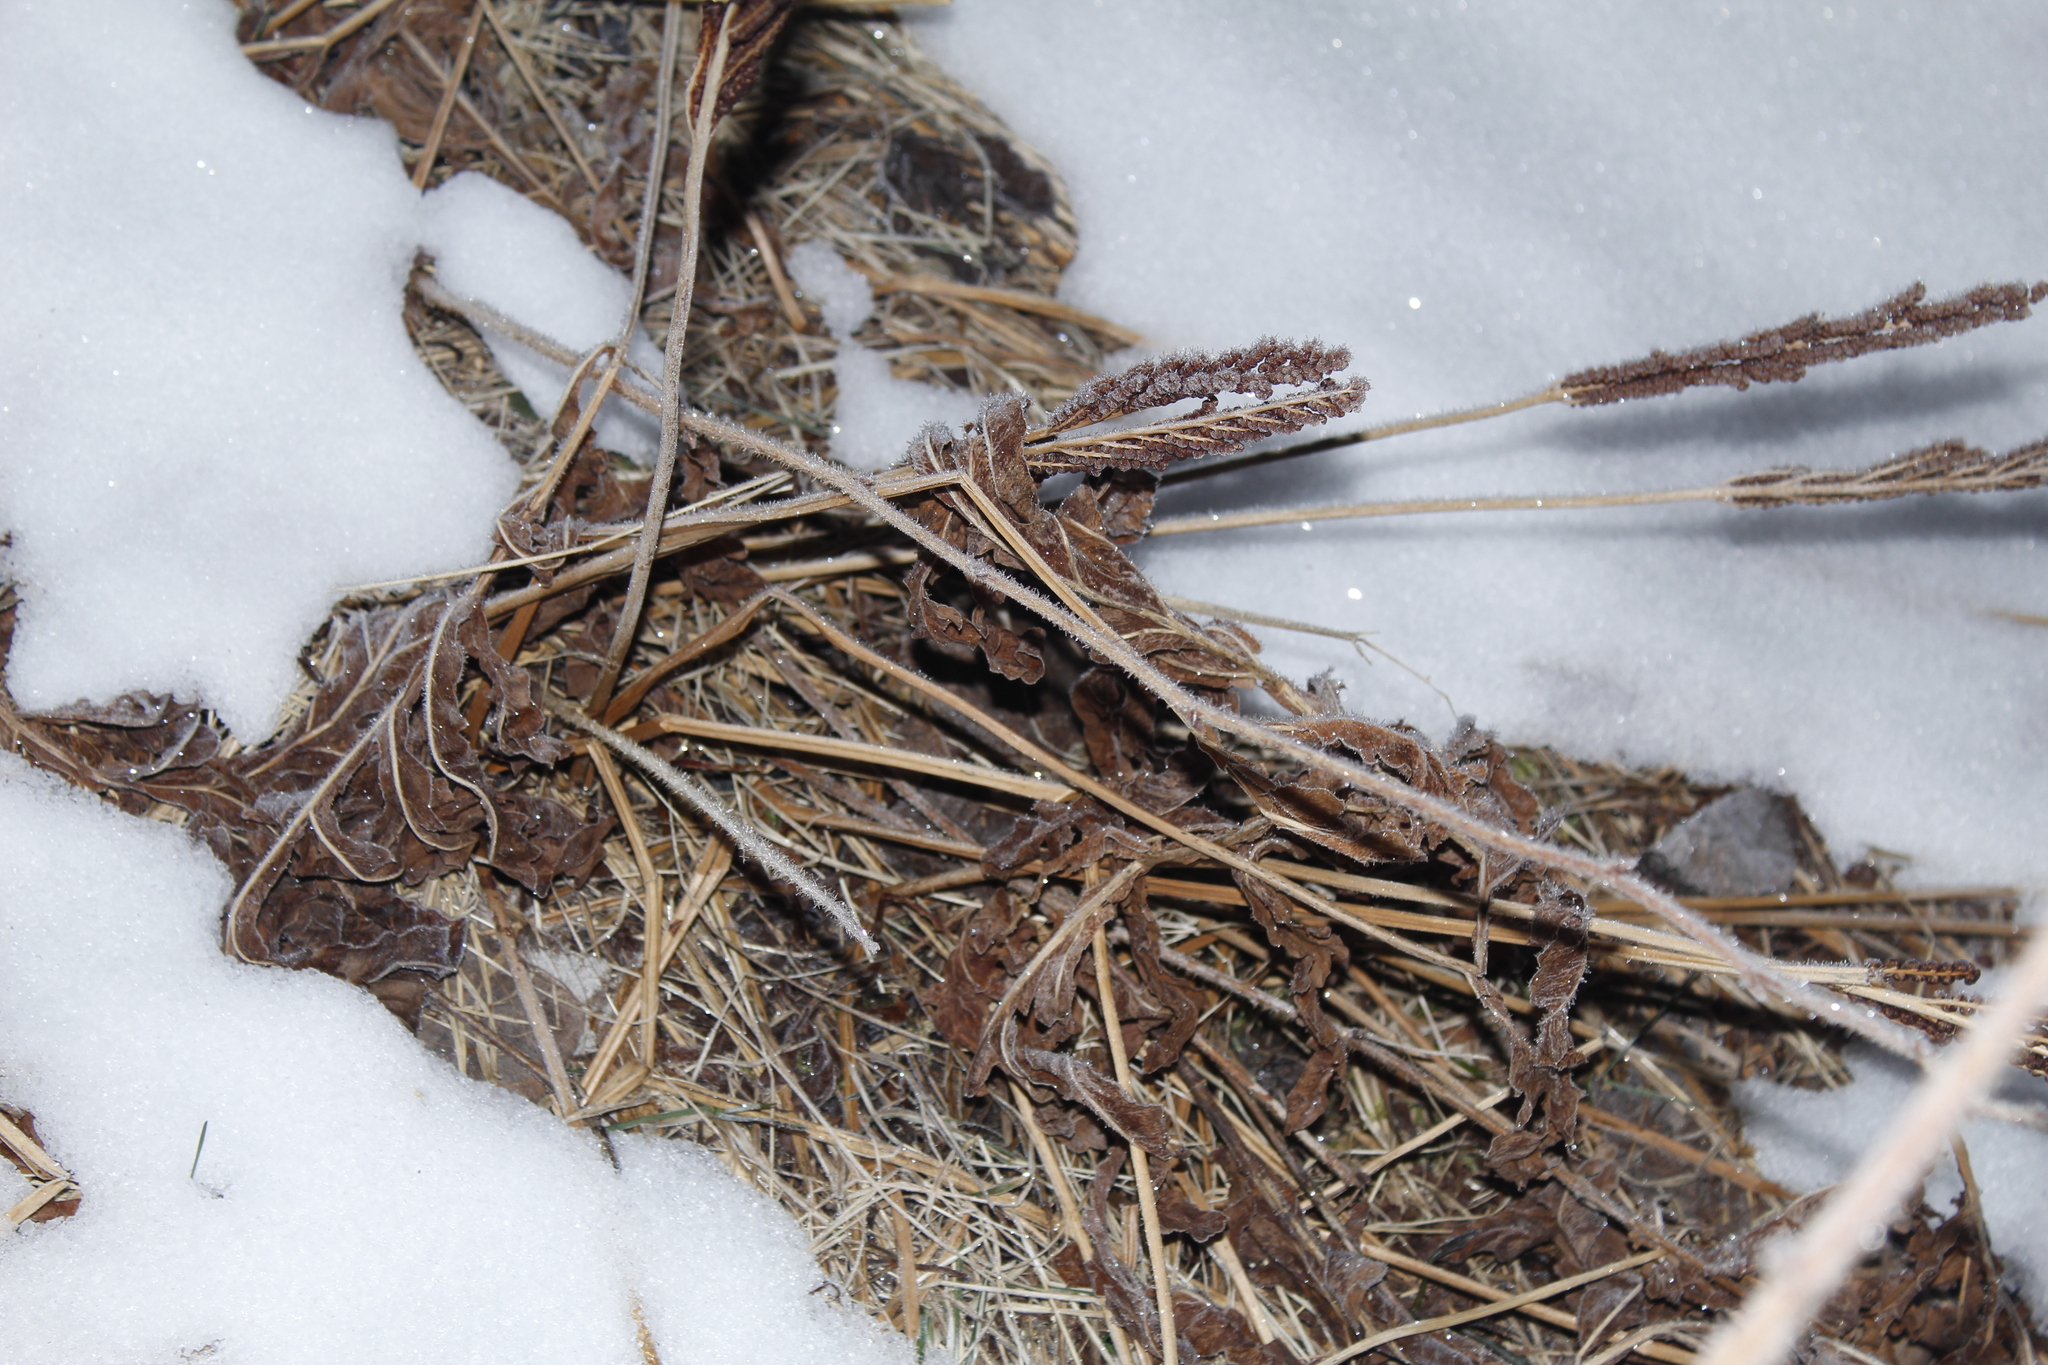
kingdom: Plantae
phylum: Tracheophyta
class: Polypodiopsida
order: Polypodiales
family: Onocleaceae
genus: Onoclea
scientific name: Onoclea sensibilis
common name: Sensitive fern
